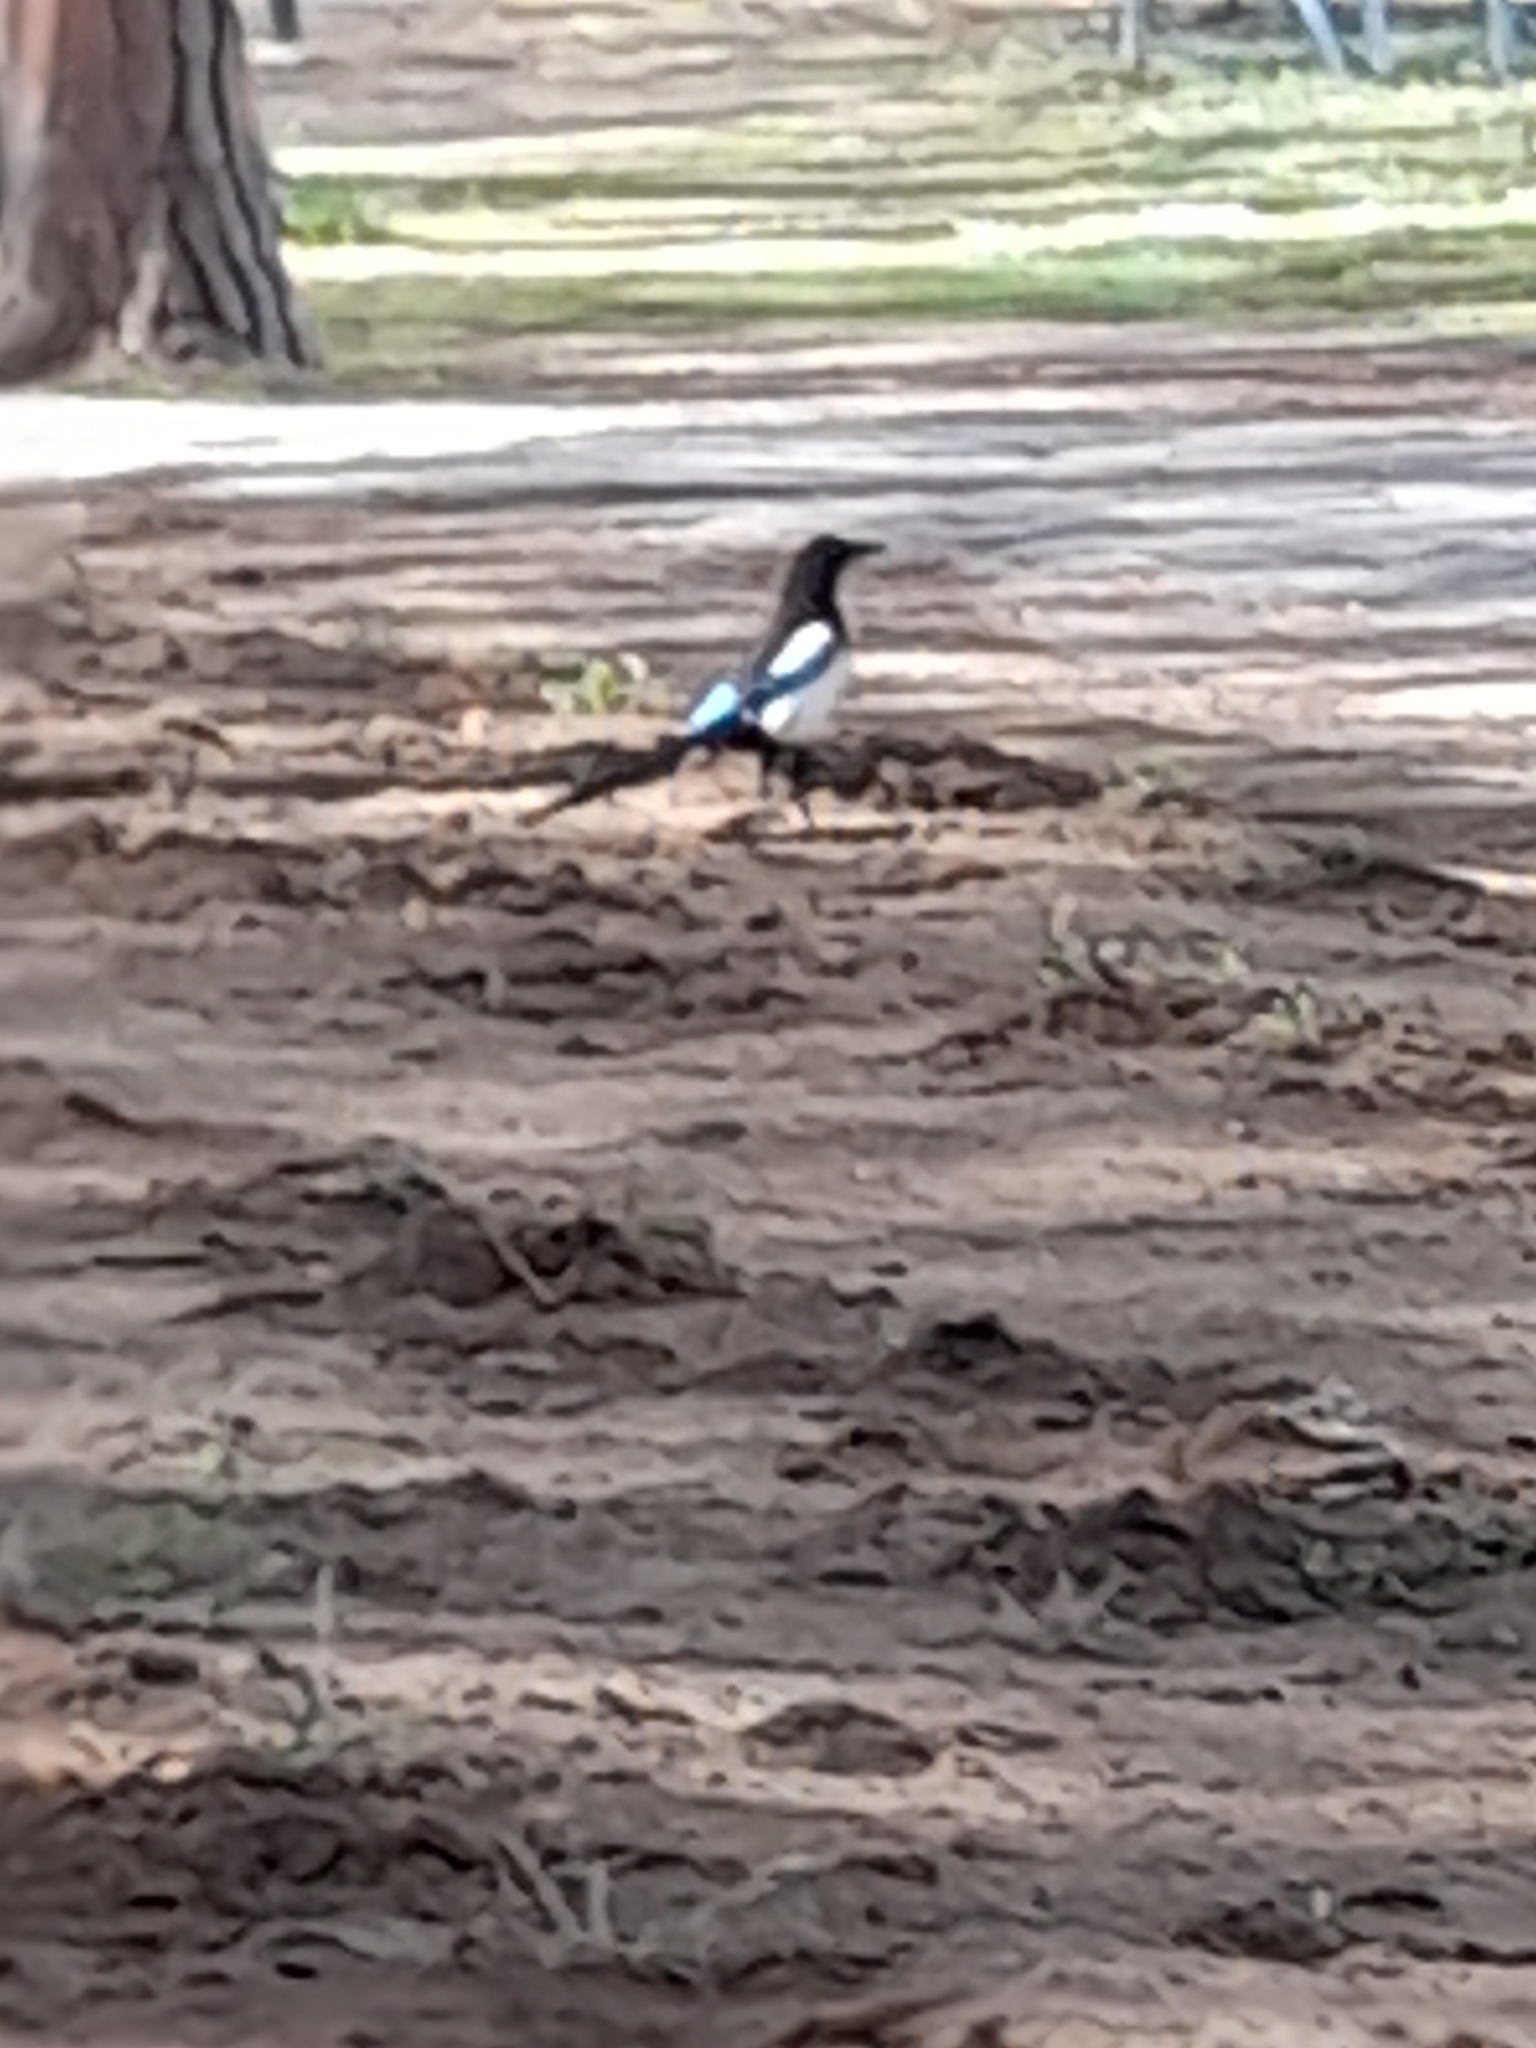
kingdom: Animalia
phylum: Chordata
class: Aves
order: Passeriformes
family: Corvidae
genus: Pica
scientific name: Pica pica
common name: Eurasian magpie
